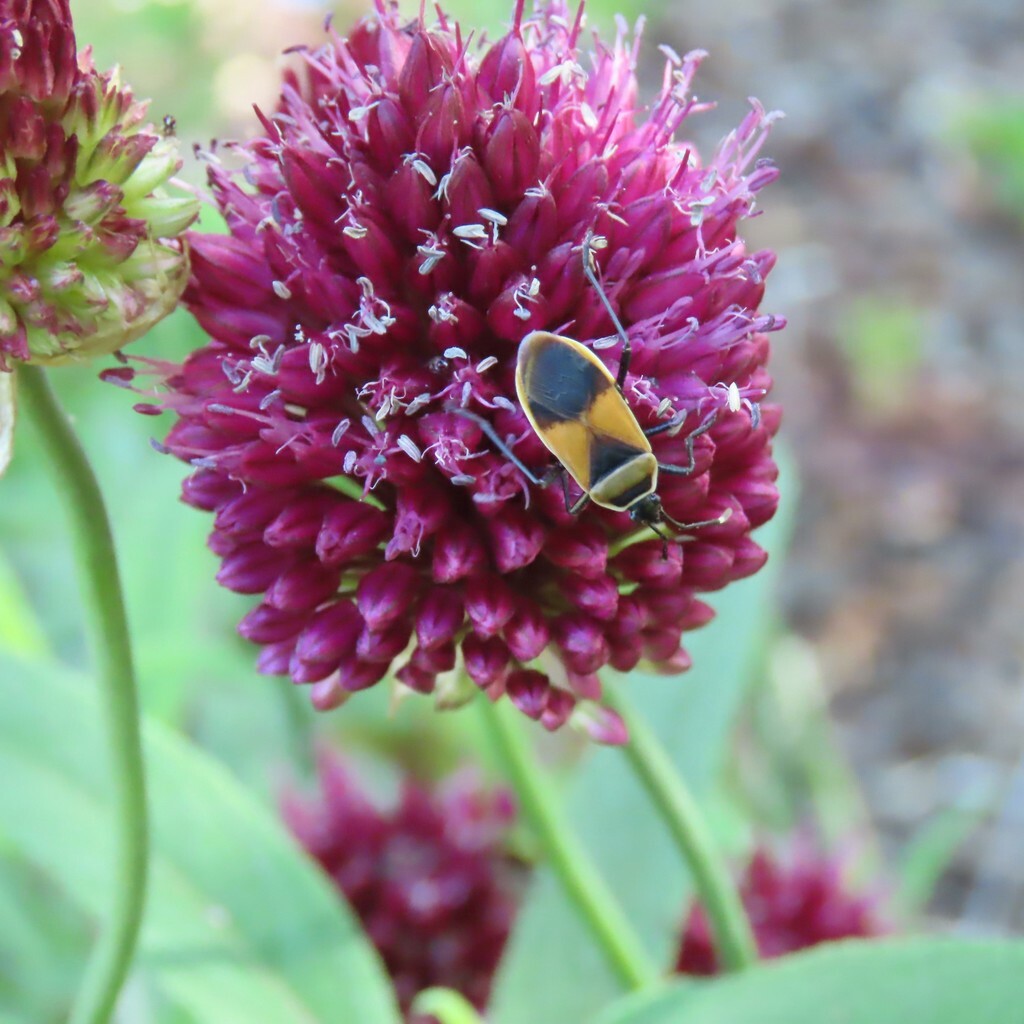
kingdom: Animalia
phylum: Arthropoda
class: Insecta
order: Hemiptera
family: Pyrrhocoridae
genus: Dindymus
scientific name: Dindymus
